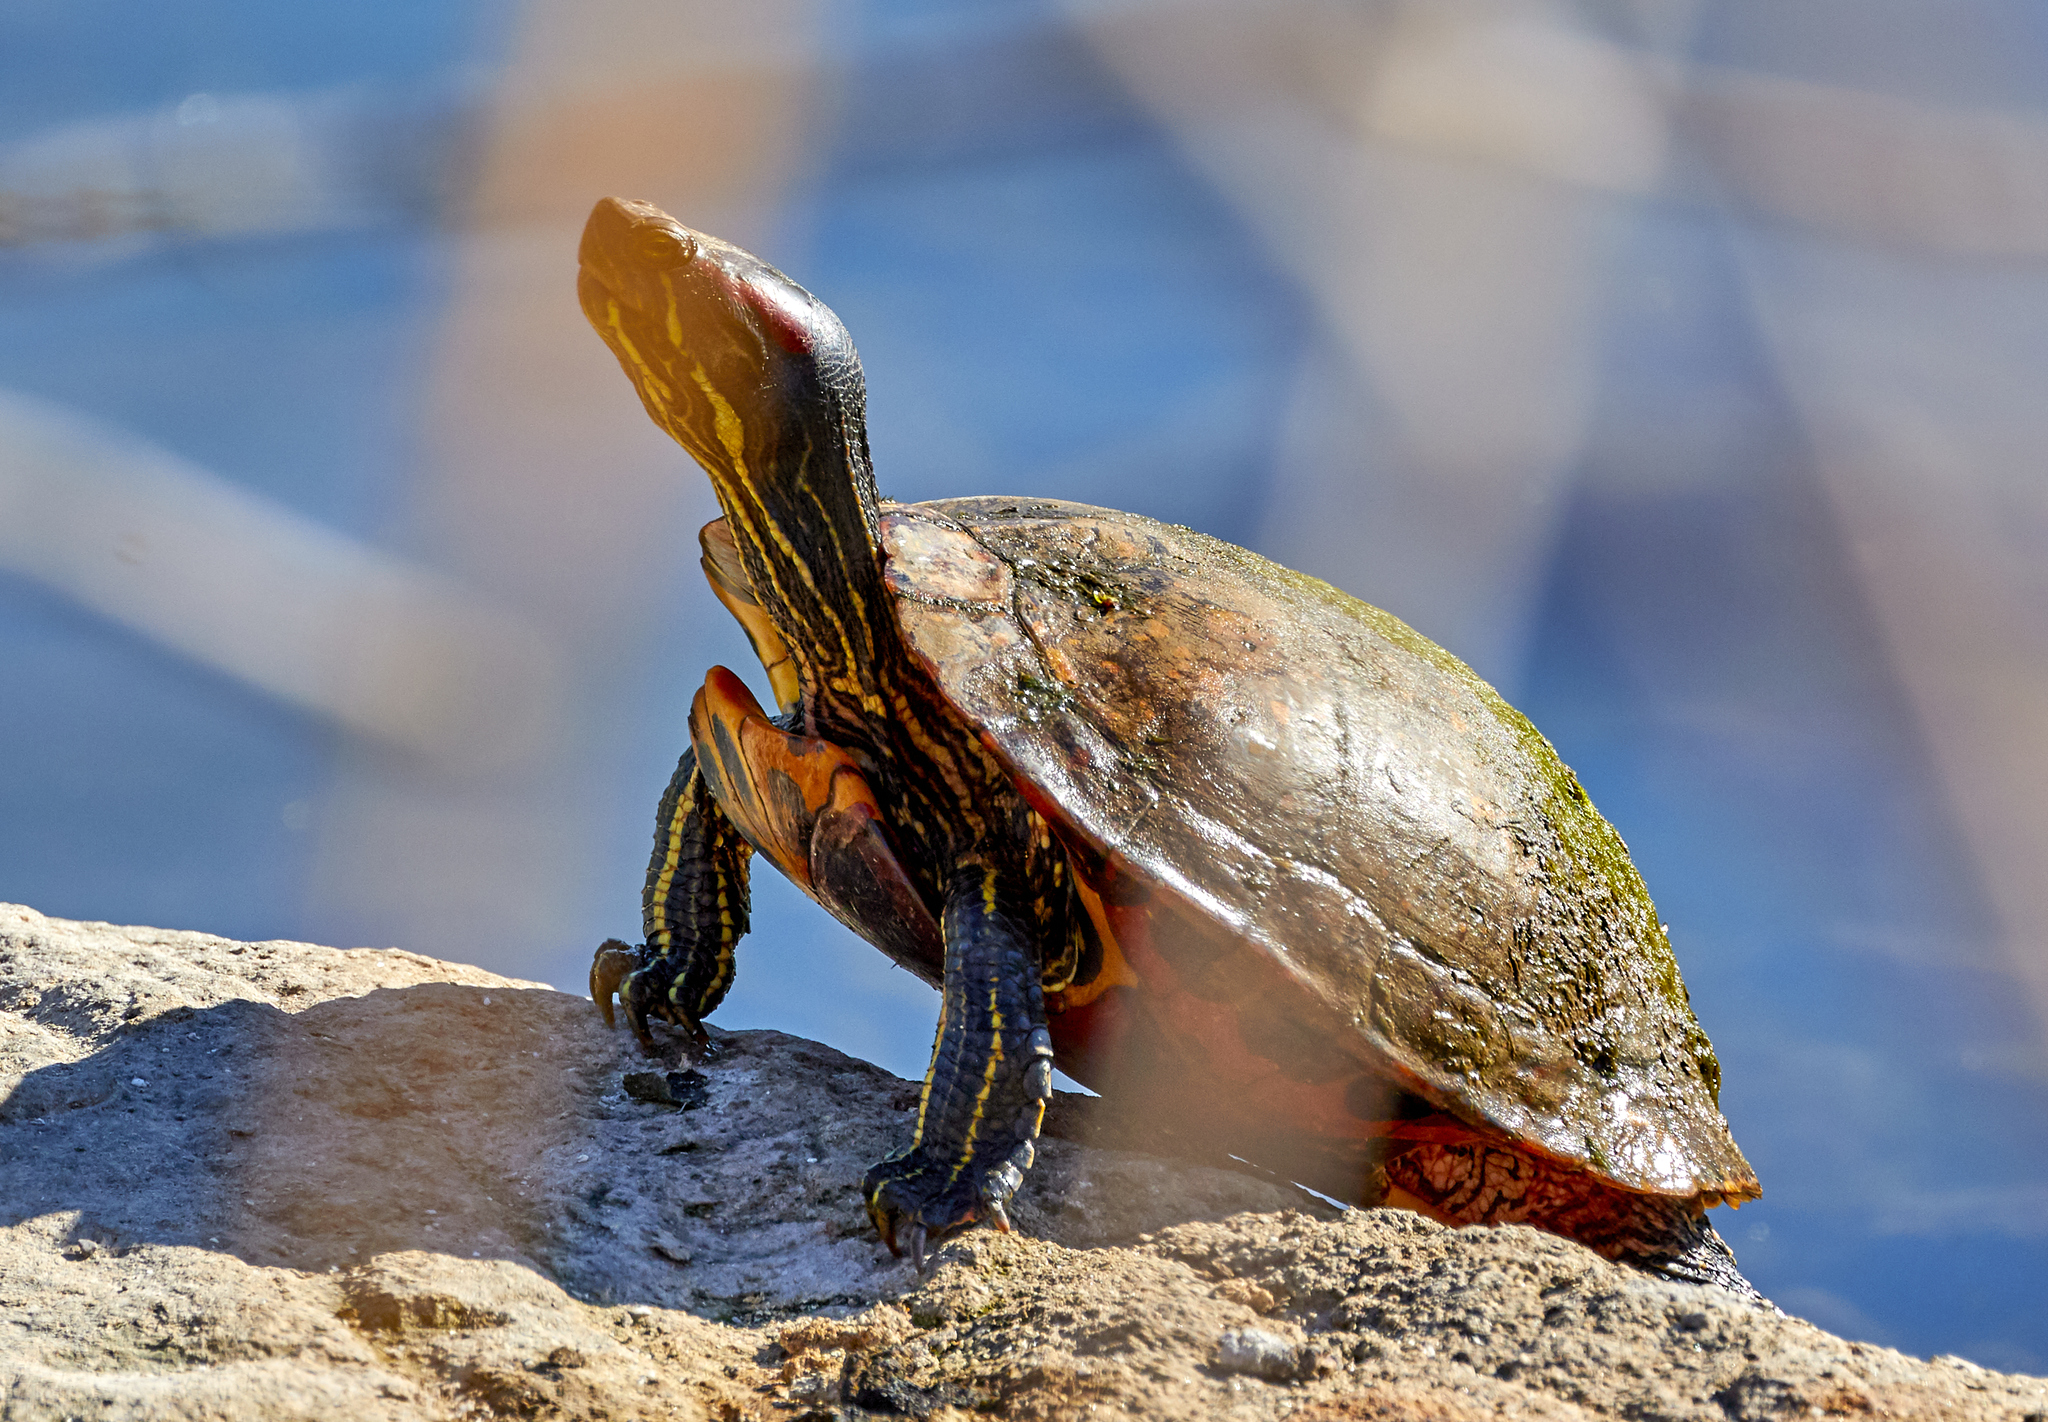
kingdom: Animalia
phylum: Chordata
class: Testudines
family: Emydidae
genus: Trachemys
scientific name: Trachemys scripta
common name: Slider
